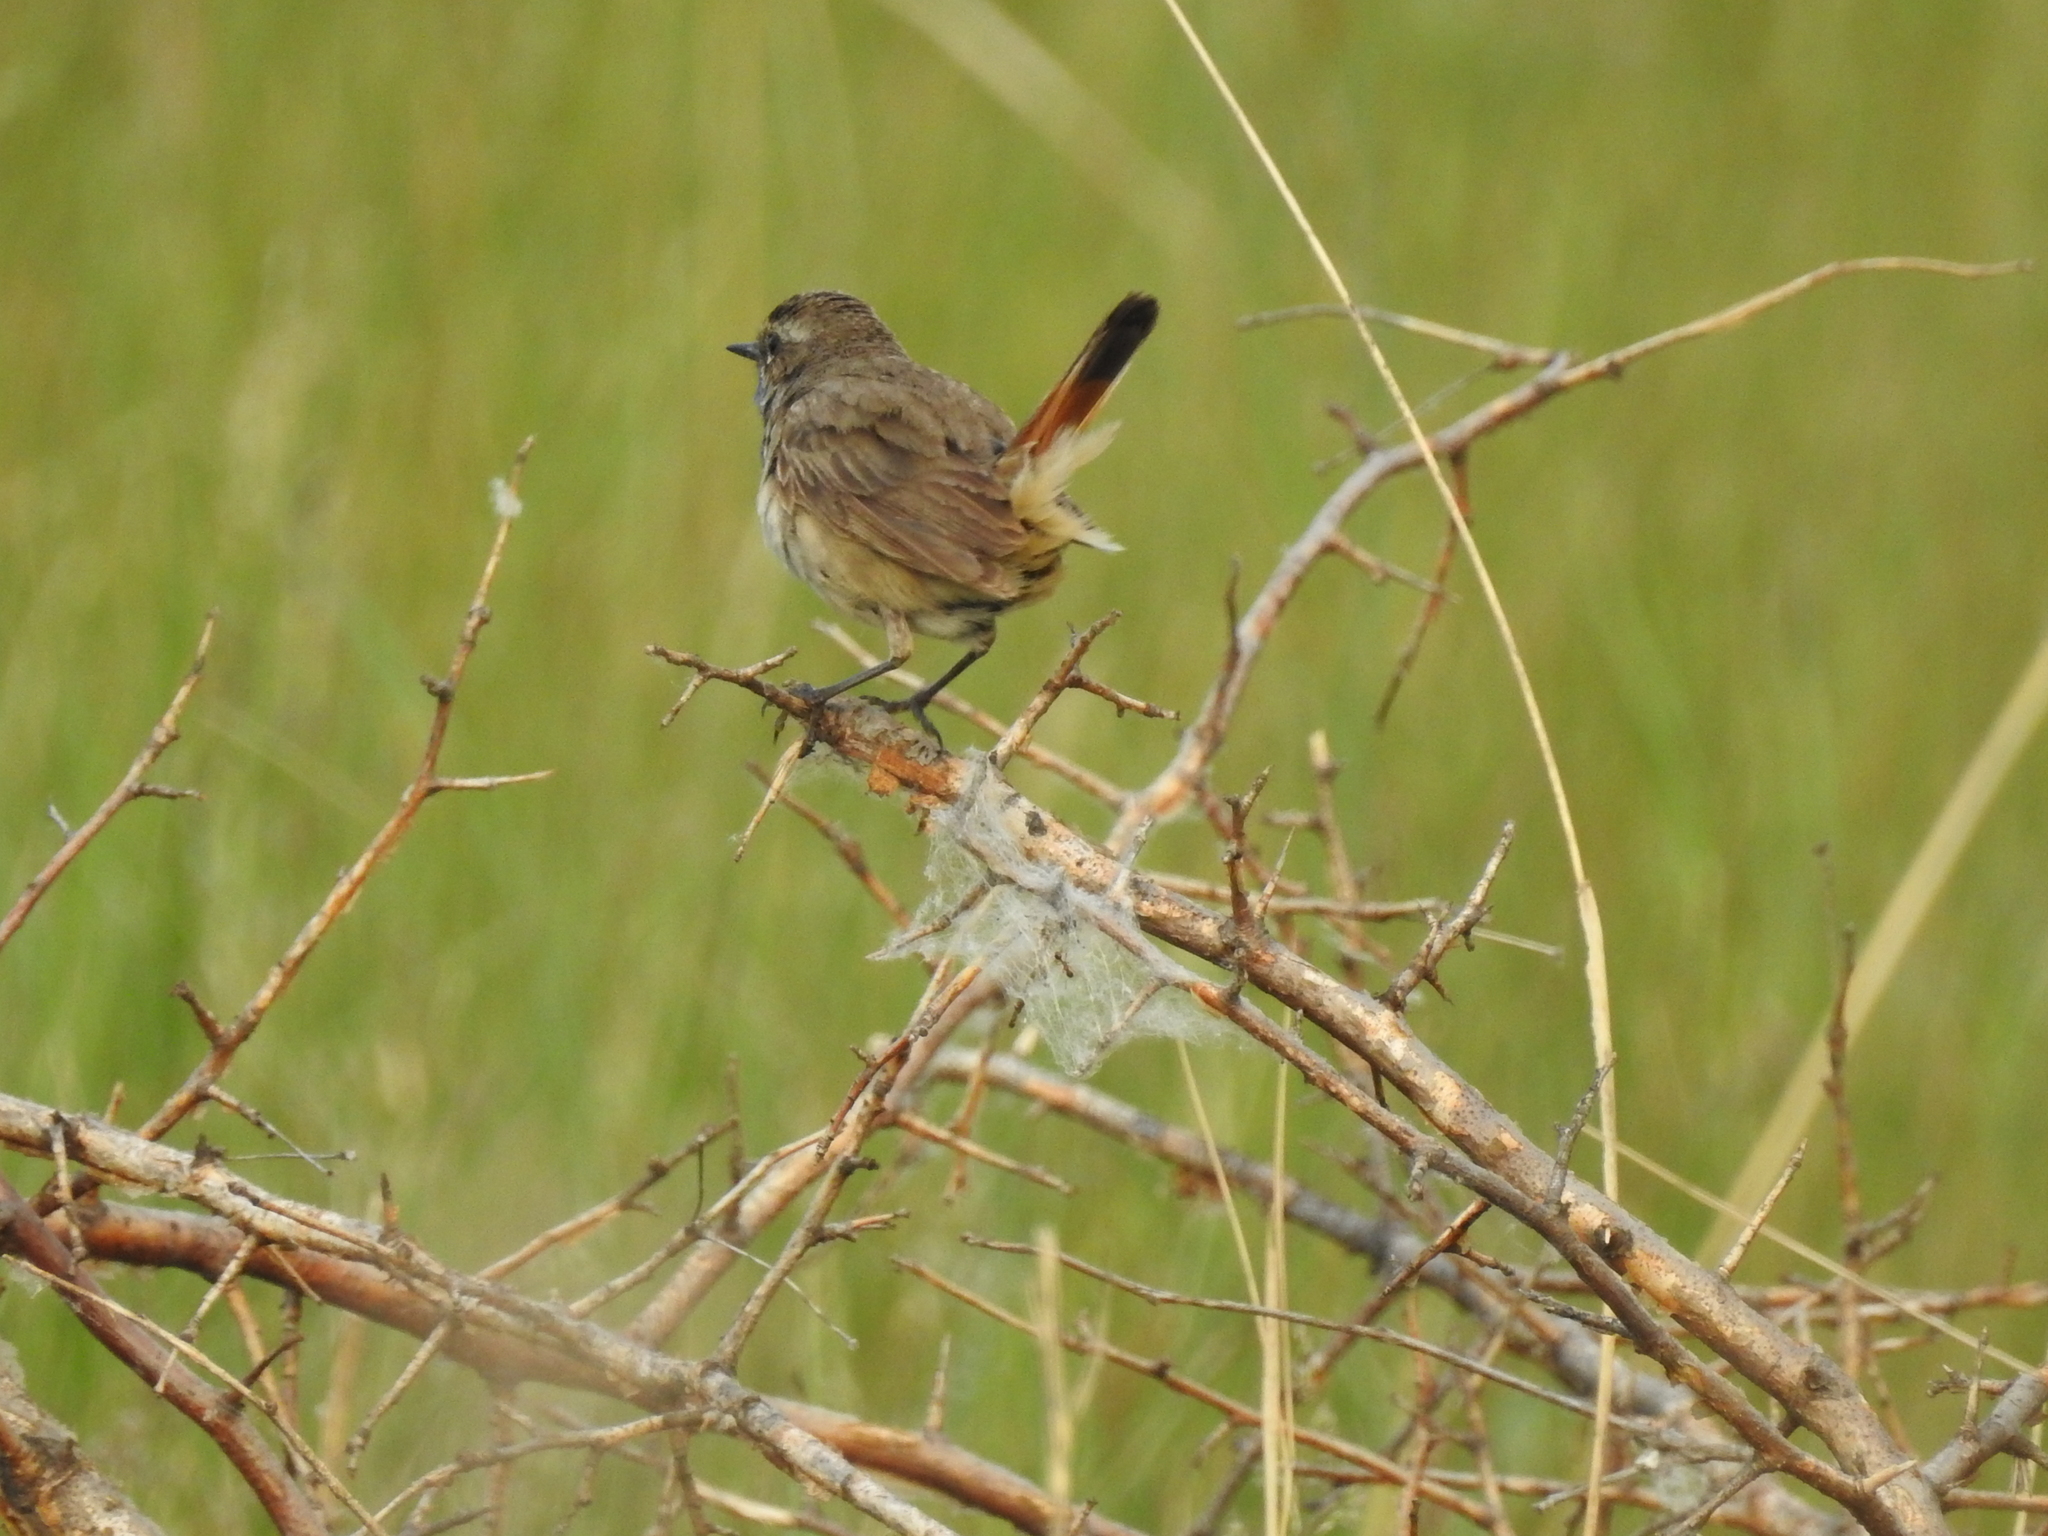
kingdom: Animalia
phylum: Chordata
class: Aves
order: Passeriformes
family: Muscicapidae
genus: Luscinia
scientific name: Luscinia svecica
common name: Bluethroat
